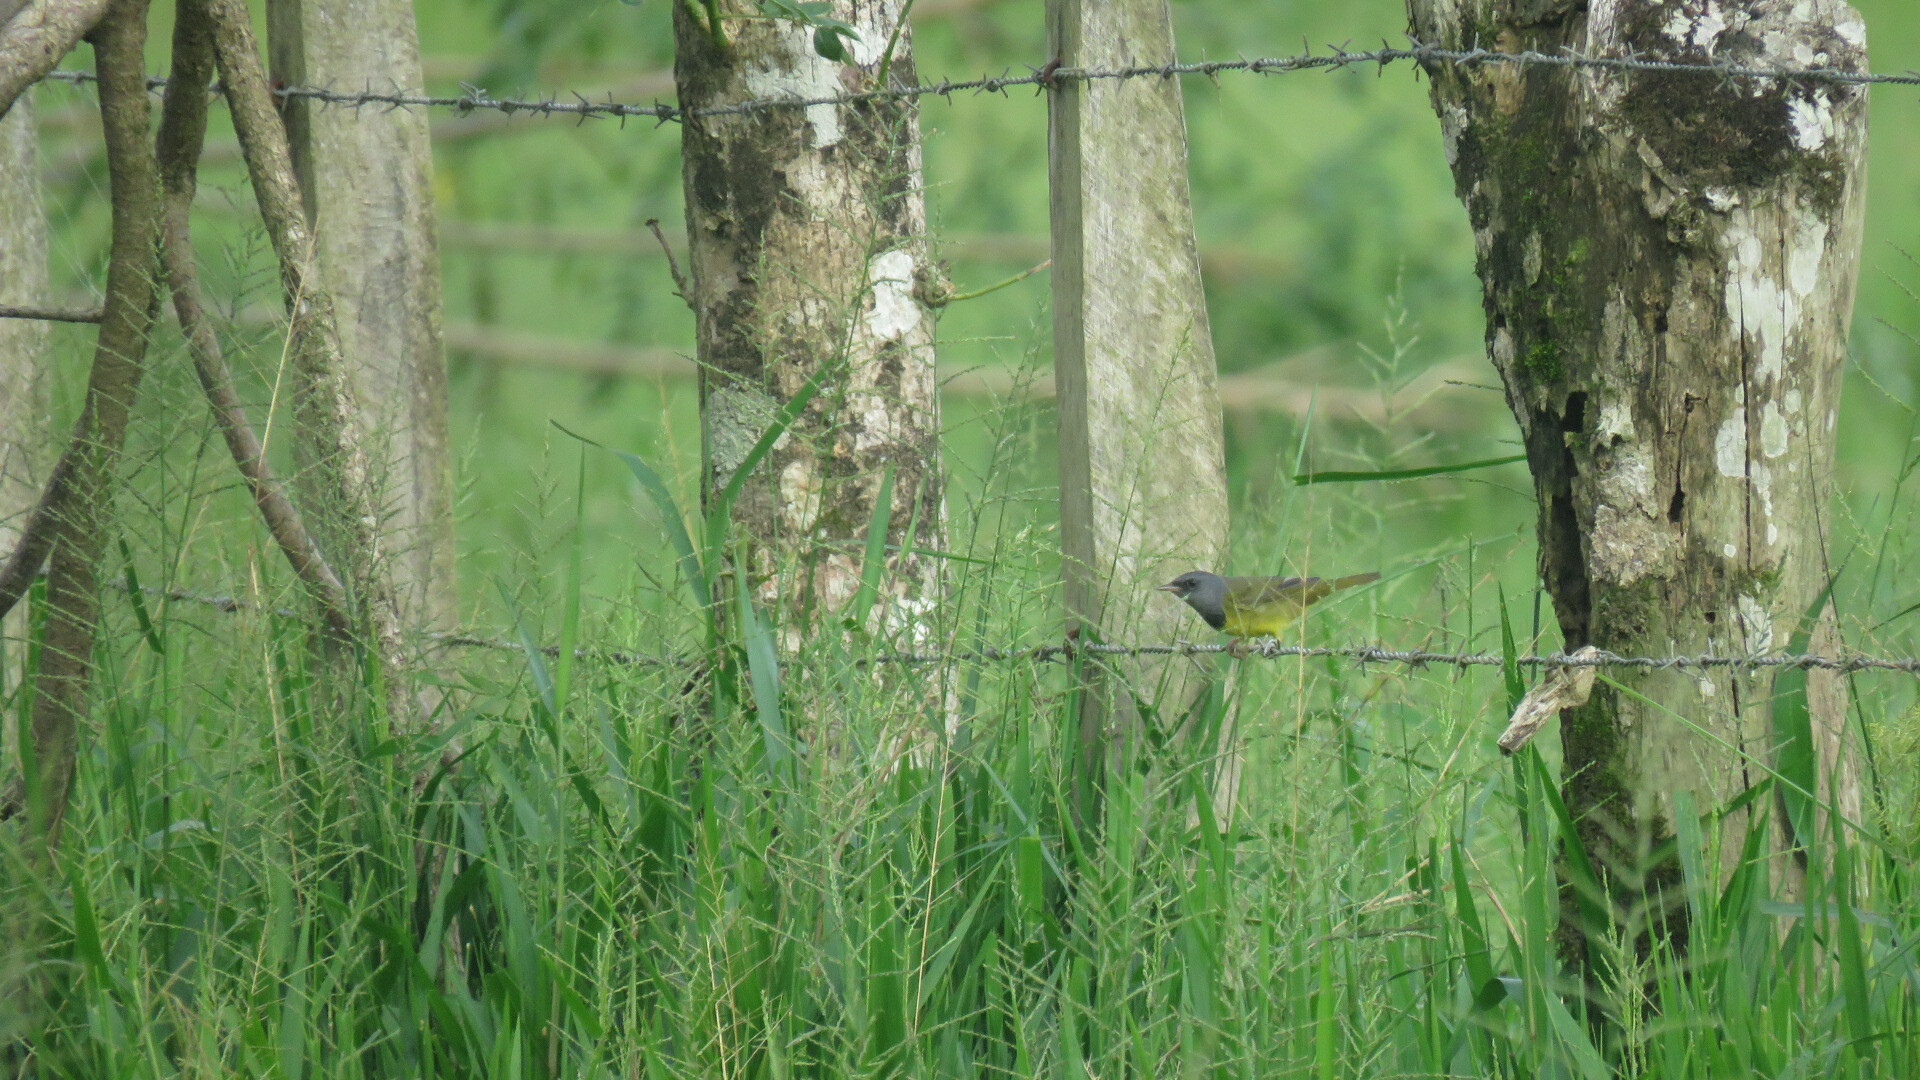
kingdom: Animalia
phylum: Chordata
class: Aves
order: Passeriformes
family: Parulidae
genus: Geothlypis
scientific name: Geothlypis philadelphia
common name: Mourning warbler
